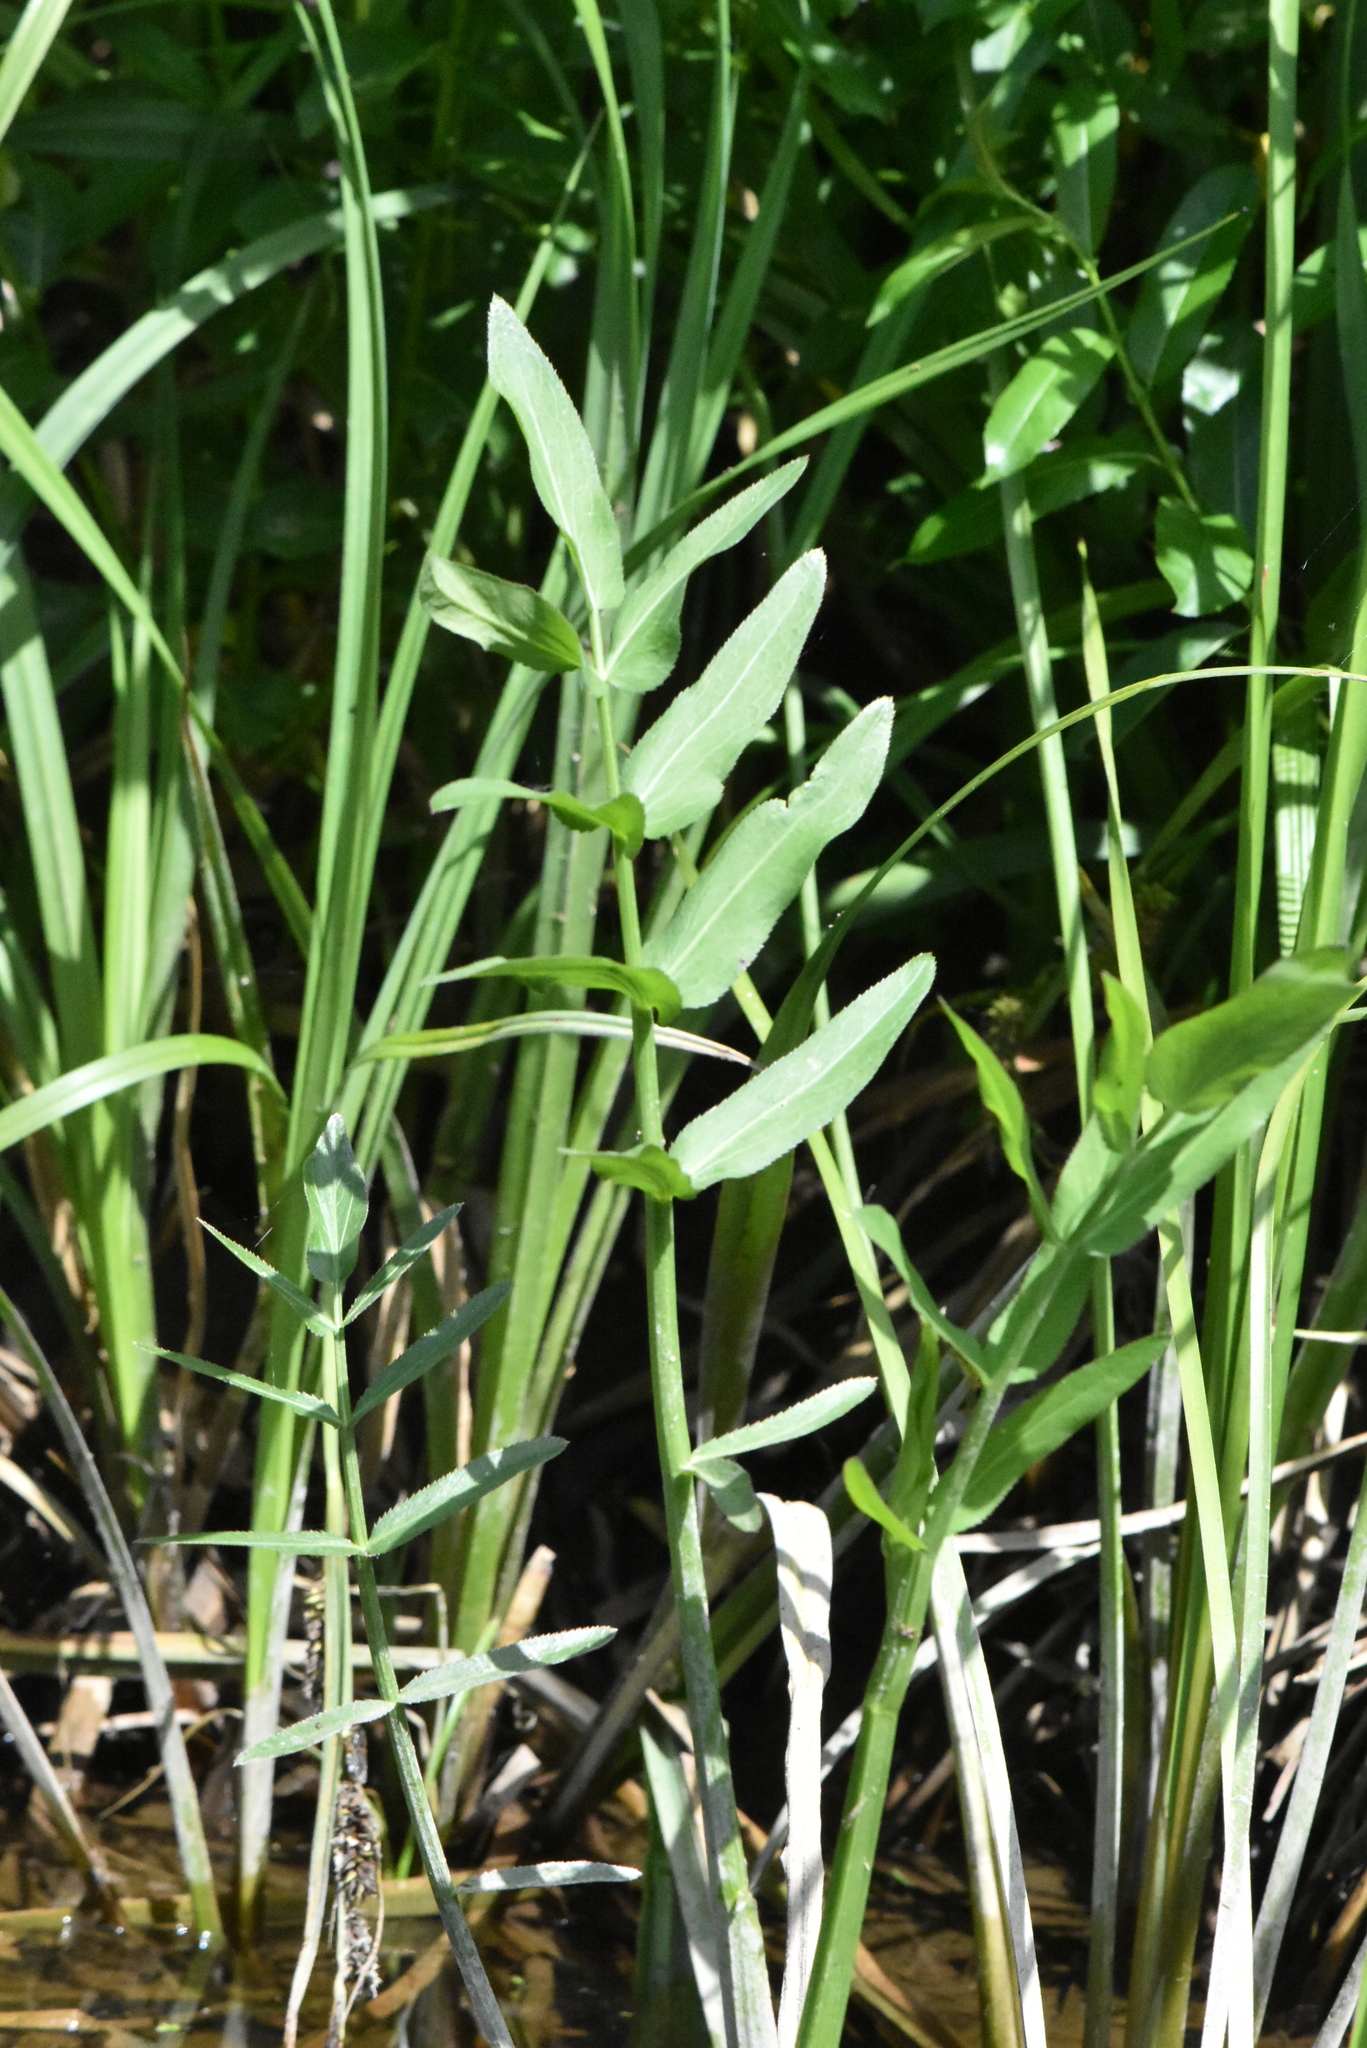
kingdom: Plantae
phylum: Tracheophyta
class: Magnoliopsida
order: Apiales
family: Apiaceae
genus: Sium
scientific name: Sium latifolium
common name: Greater water-parsnip
